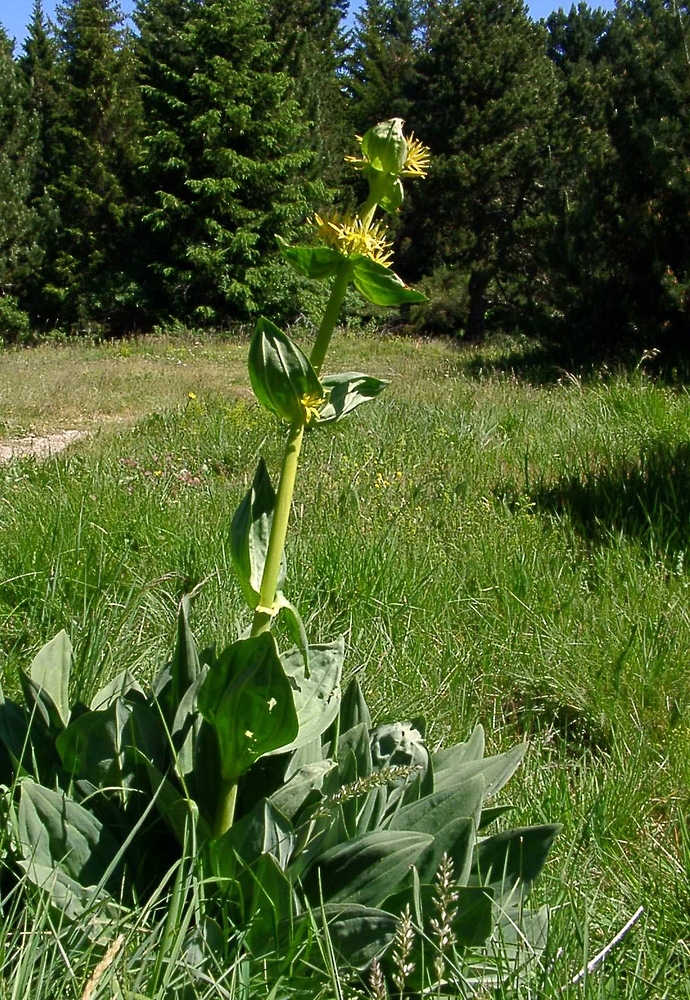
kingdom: Plantae
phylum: Tracheophyta
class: Magnoliopsida
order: Gentianales
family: Gentianaceae
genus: Gentiana
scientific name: Gentiana lutea
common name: Great yellow gentian
